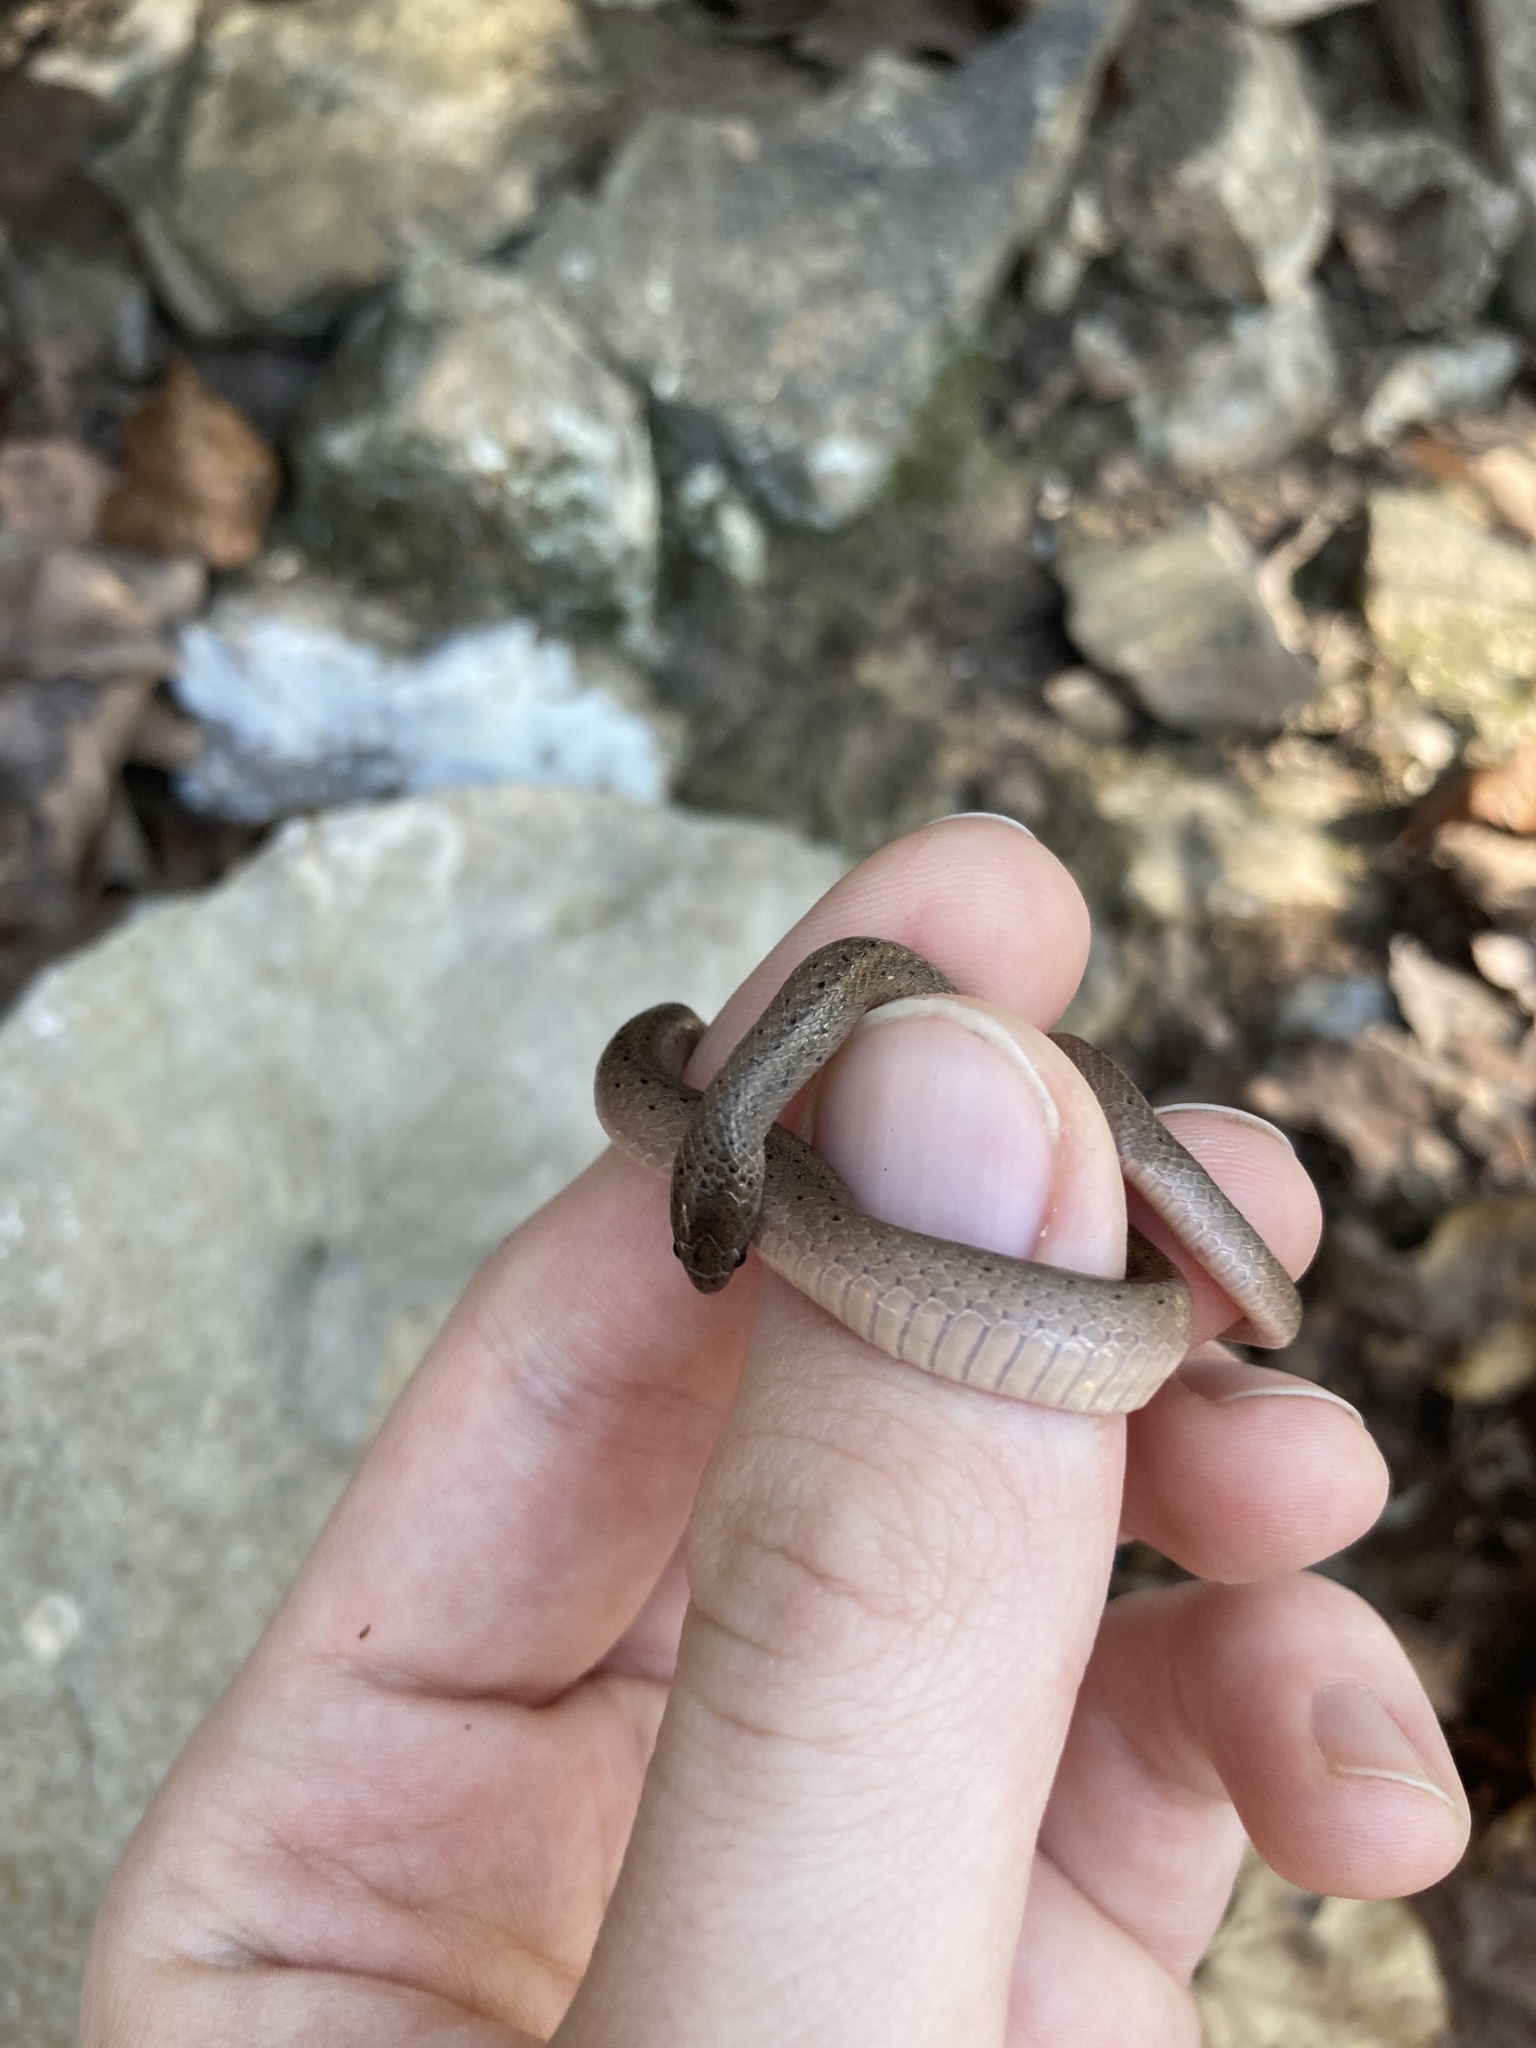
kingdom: Animalia
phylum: Chordata
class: Squamata
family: Colubridae
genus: Virginia
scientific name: Virginia valeriae
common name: Smooth earth snake
